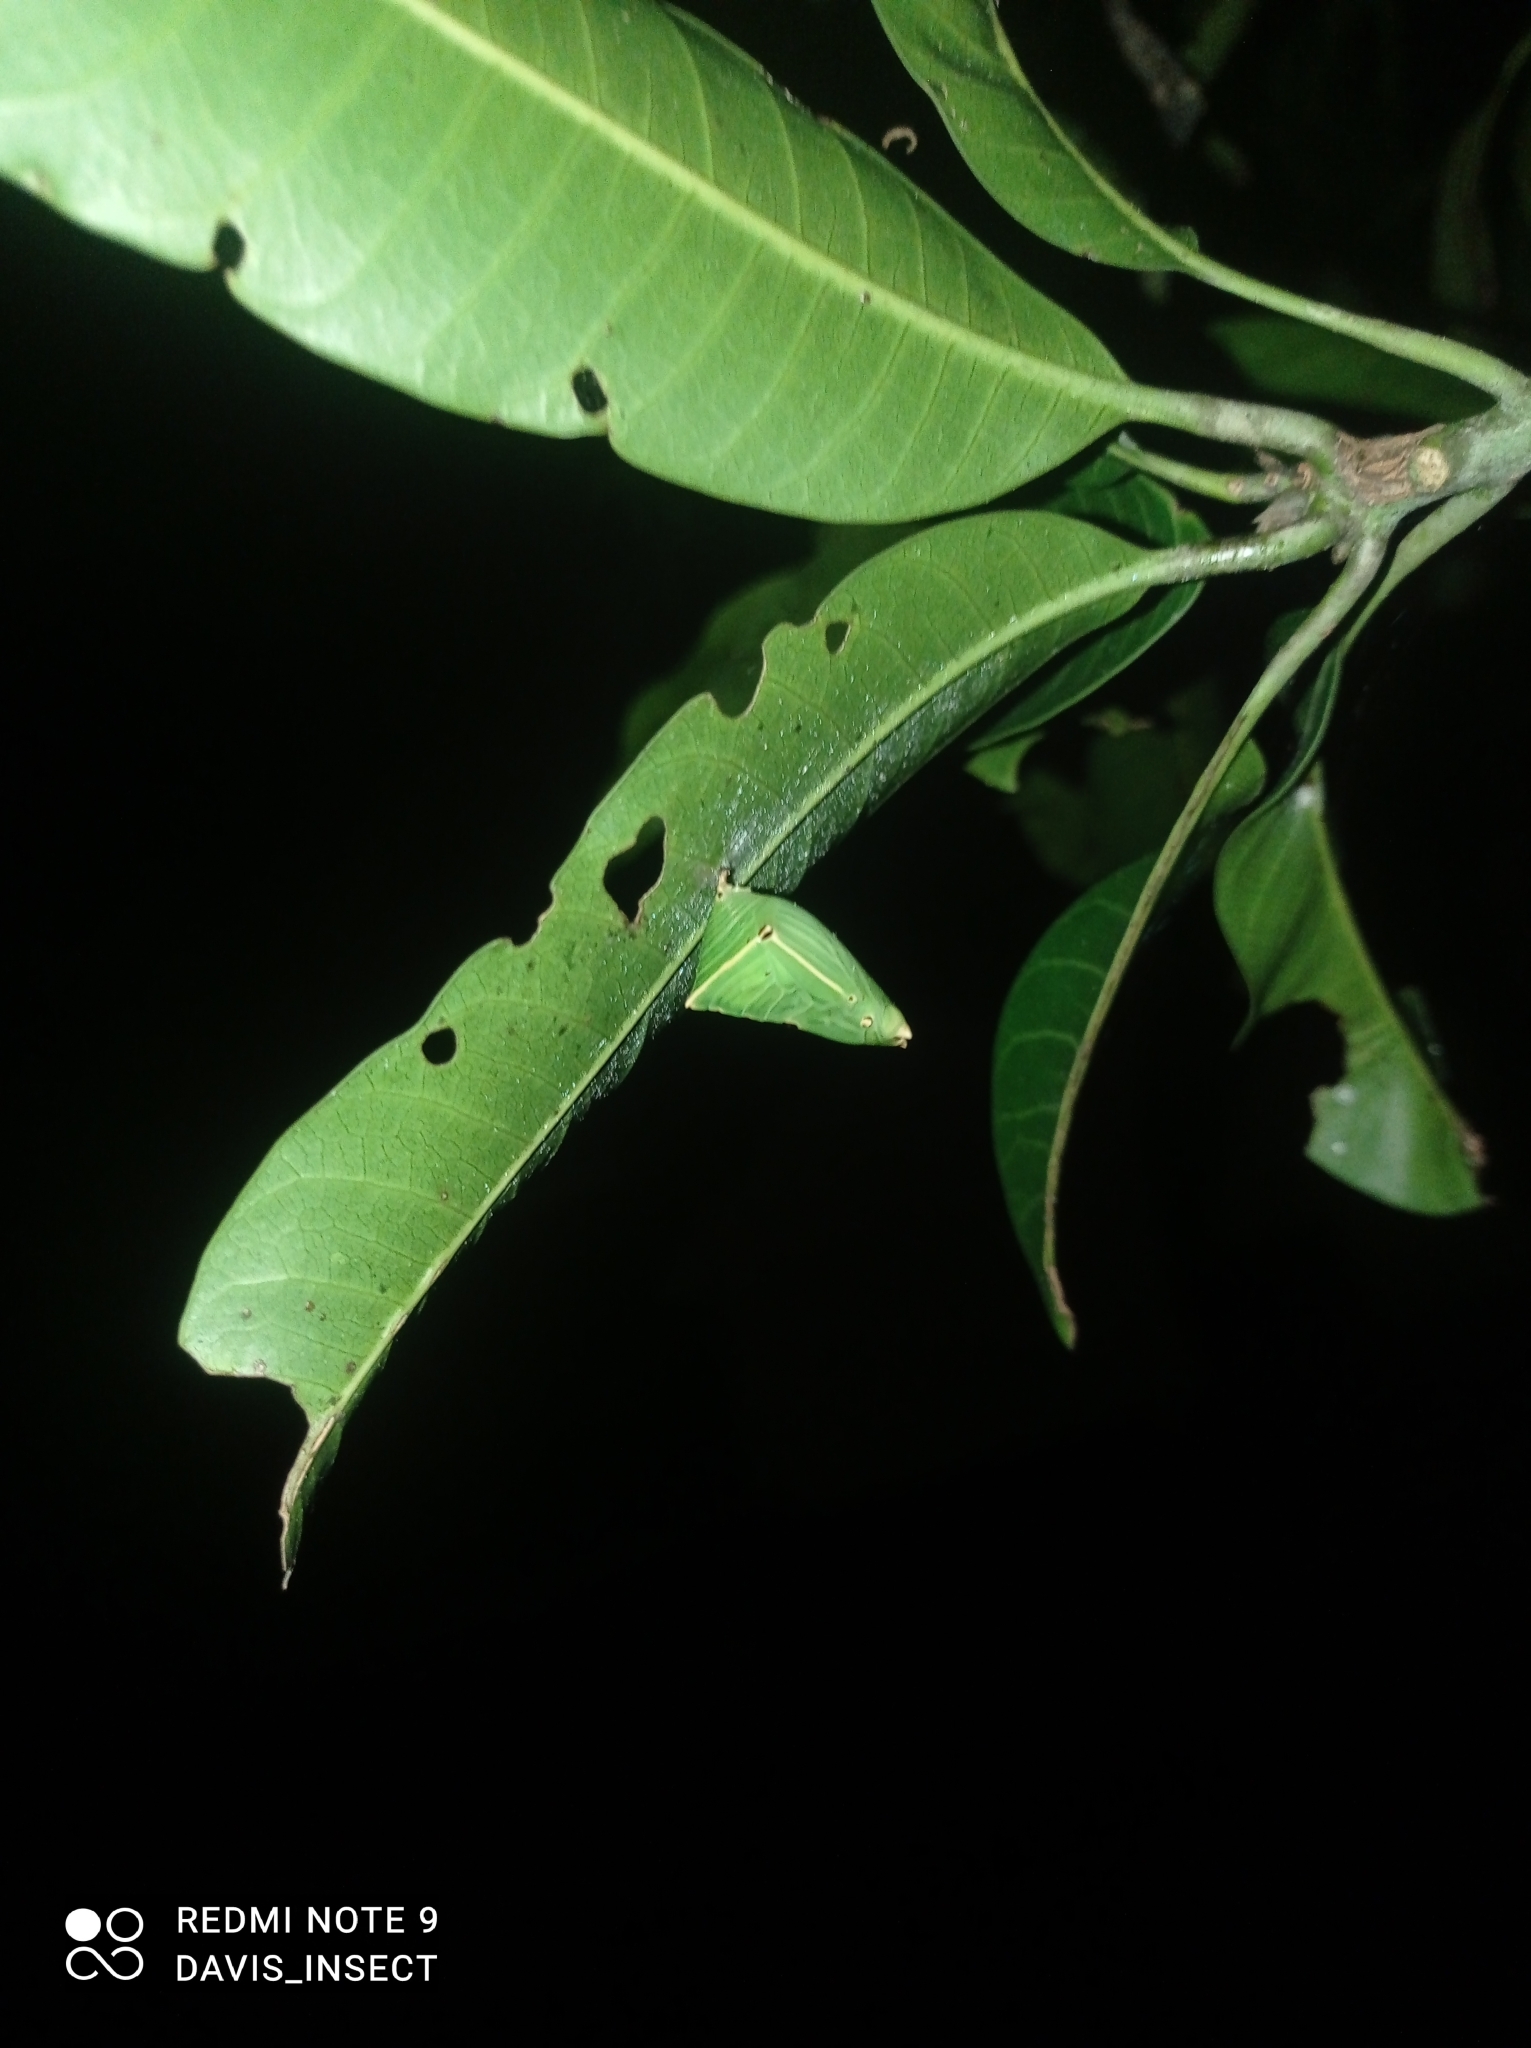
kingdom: Animalia
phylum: Arthropoda
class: Insecta
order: Lepidoptera
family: Nymphalidae
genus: Euthalia
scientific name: Euthalia aconthea
